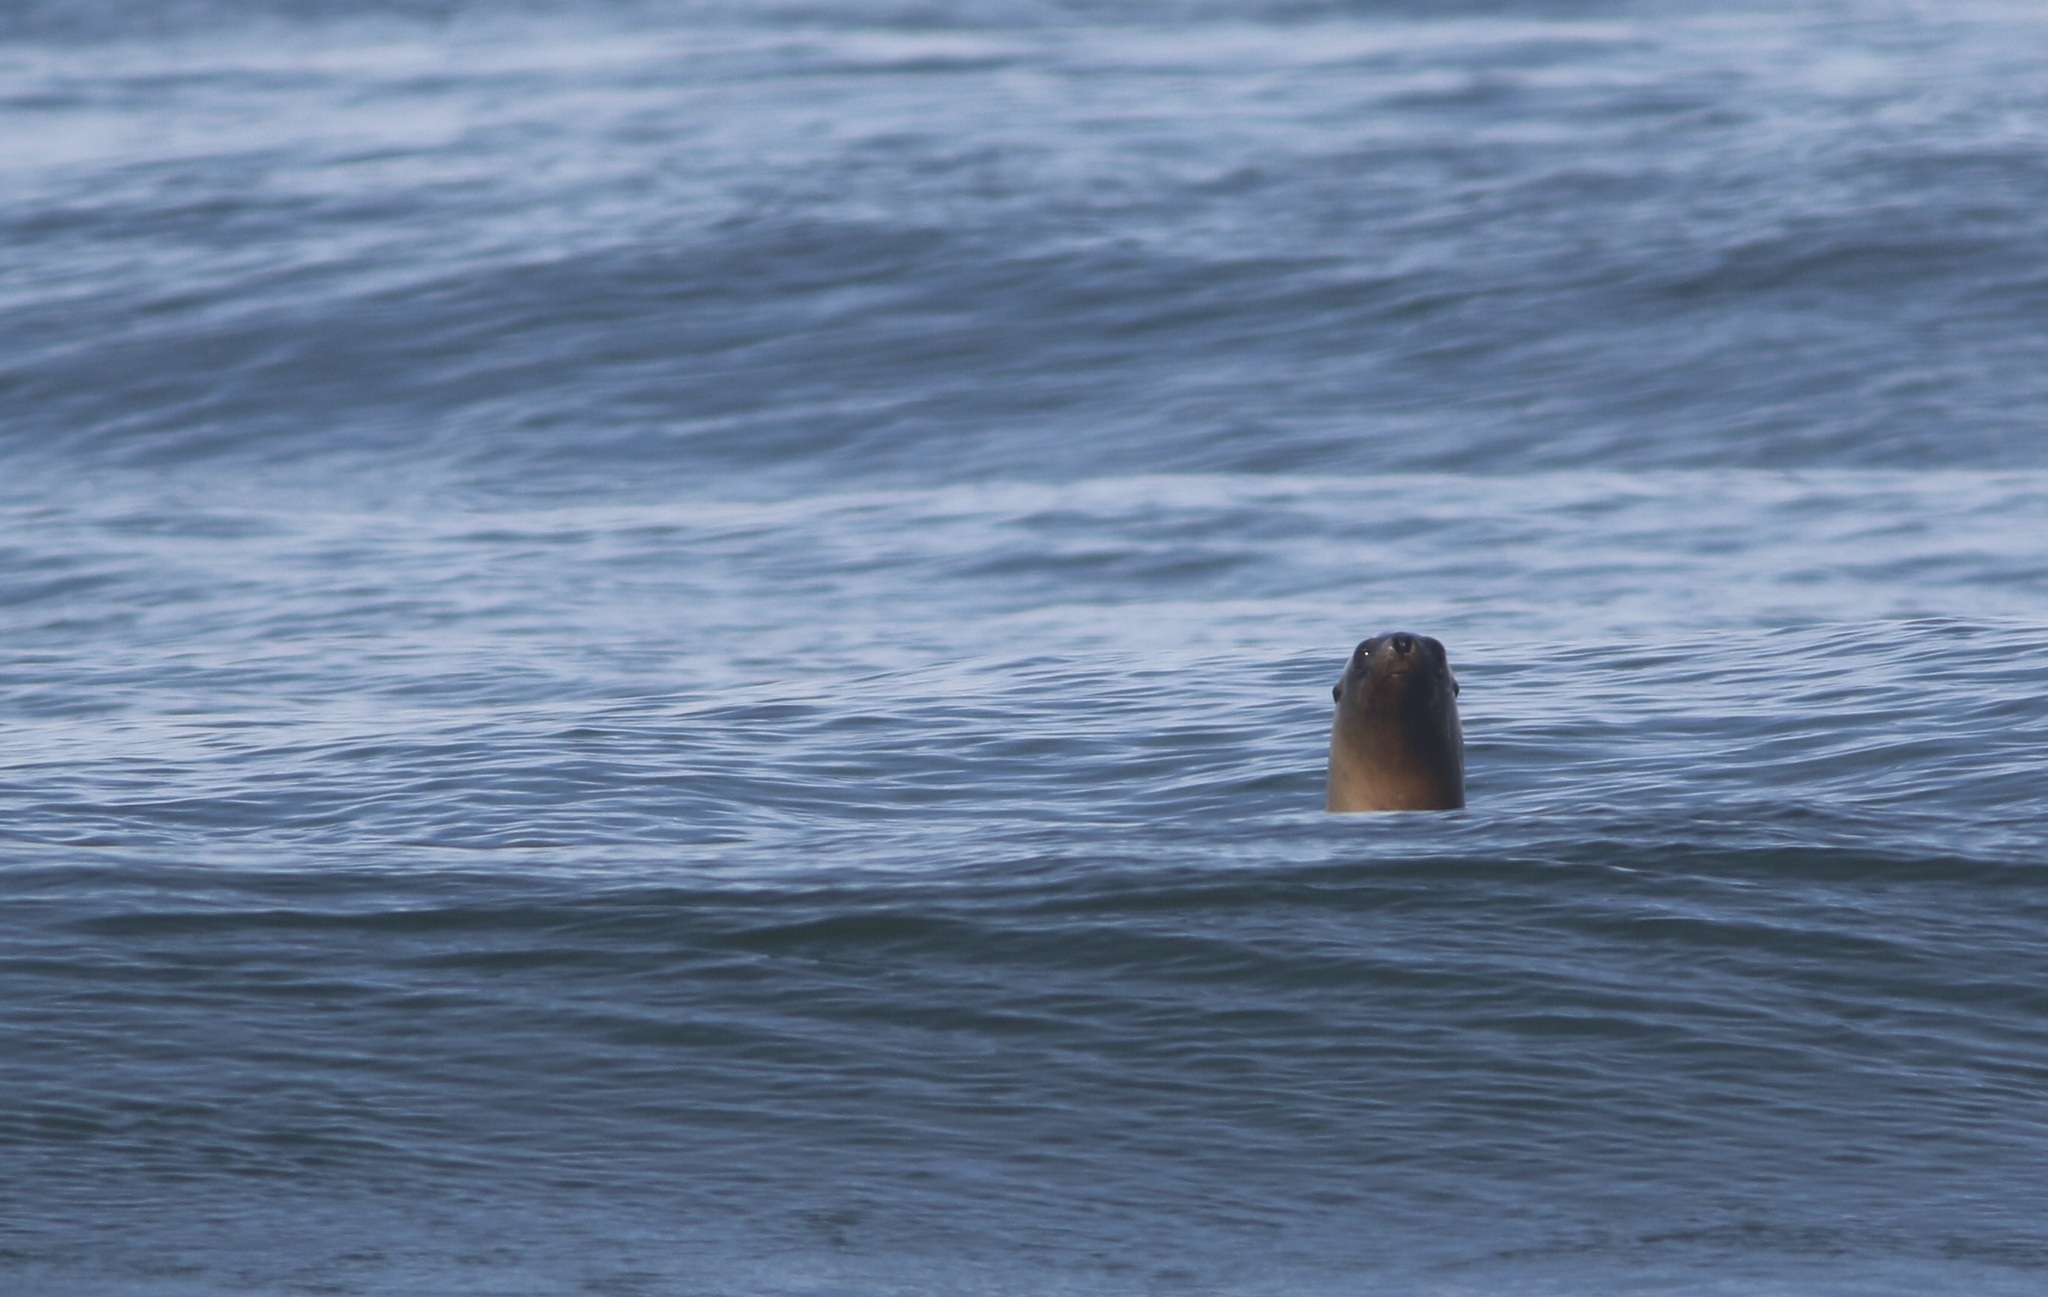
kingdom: Animalia
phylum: Chordata
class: Mammalia
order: Carnivora
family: Otariidae
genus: Zalophus
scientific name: Zalophus californianus
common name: California sea lion
